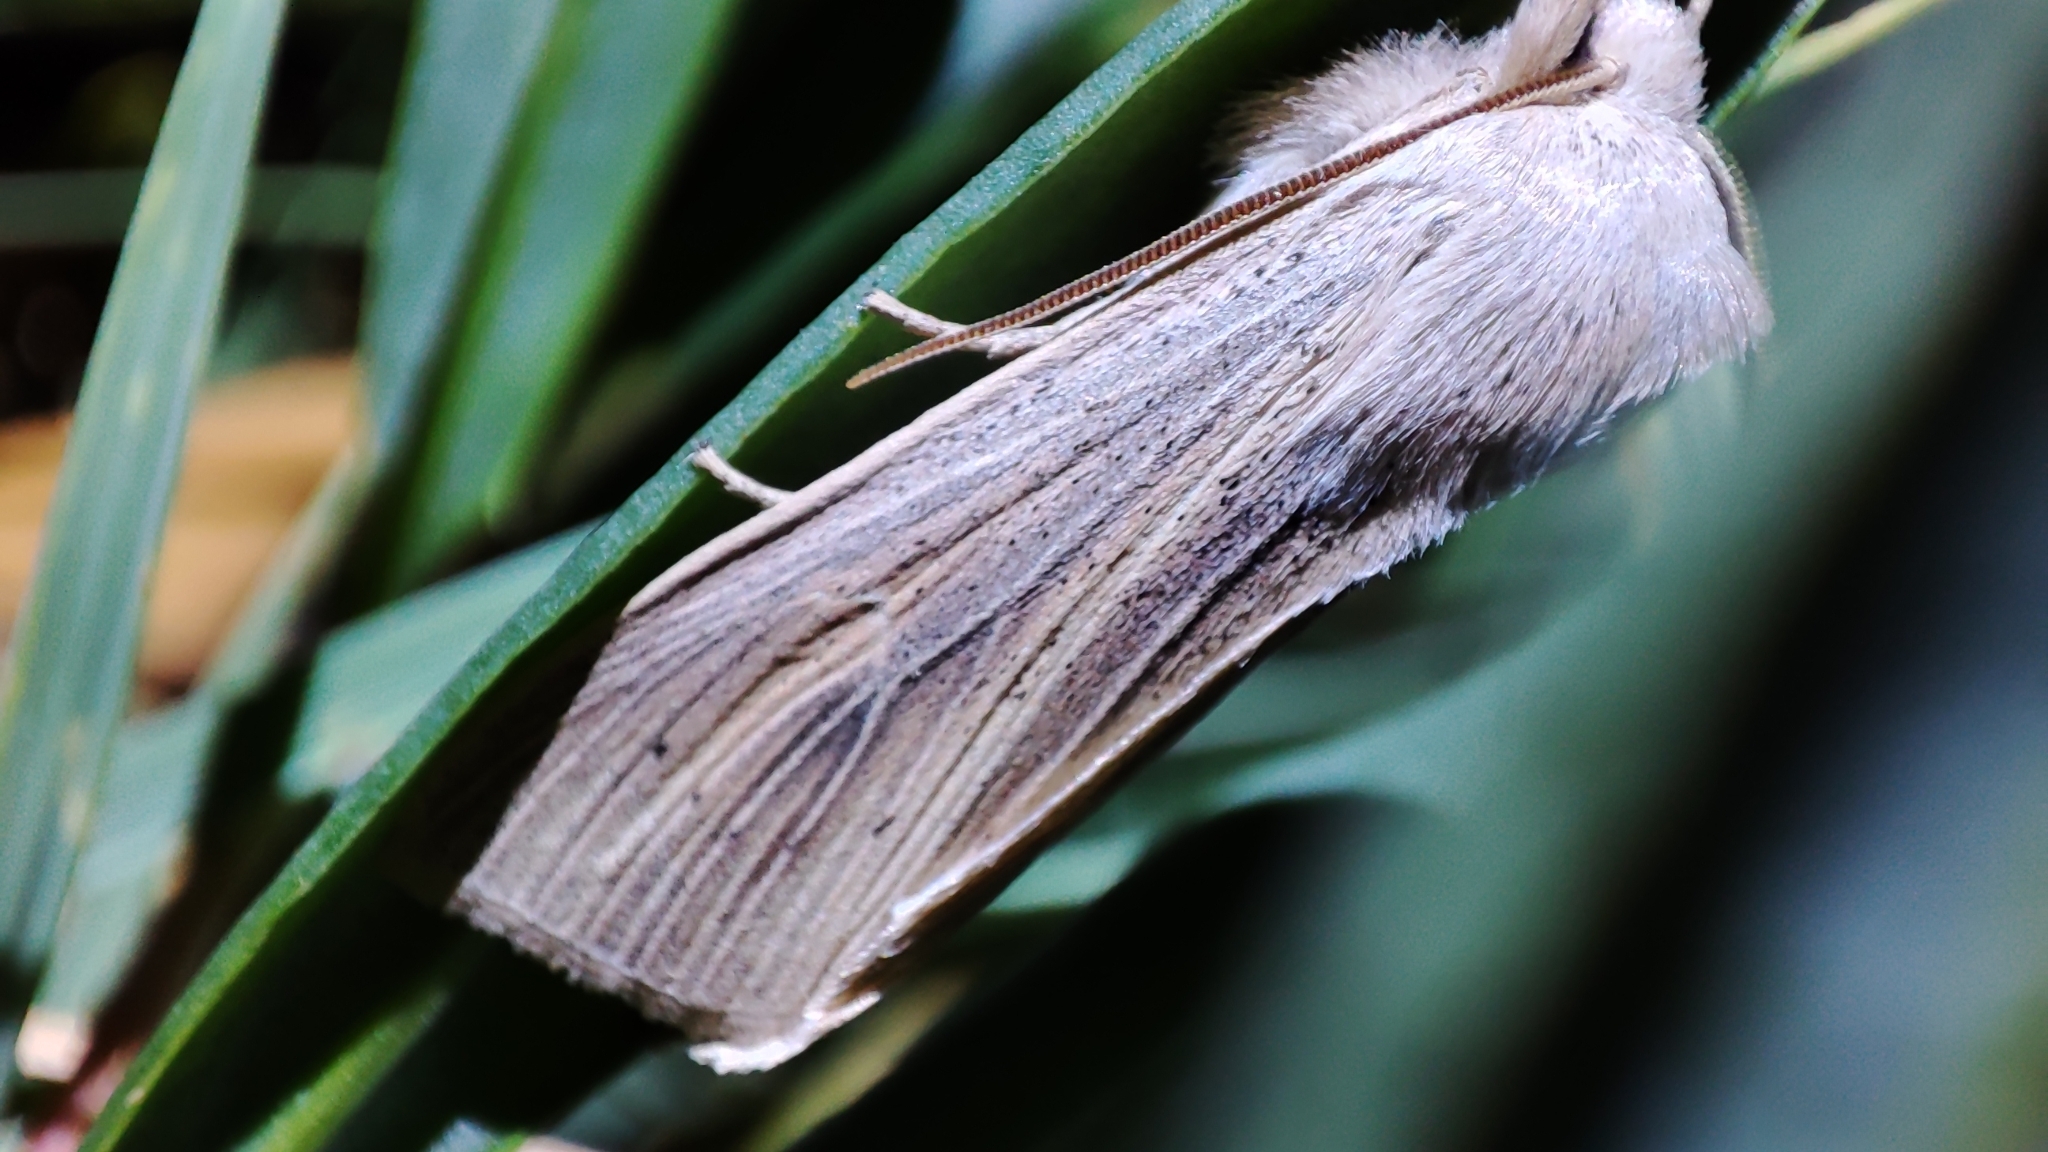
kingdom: Animalia
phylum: Arthropoda
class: Insecta
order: Lepidoptera
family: Noctuidae
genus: Rhizedra
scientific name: Rhizedra lutosa
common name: Large wainscot
